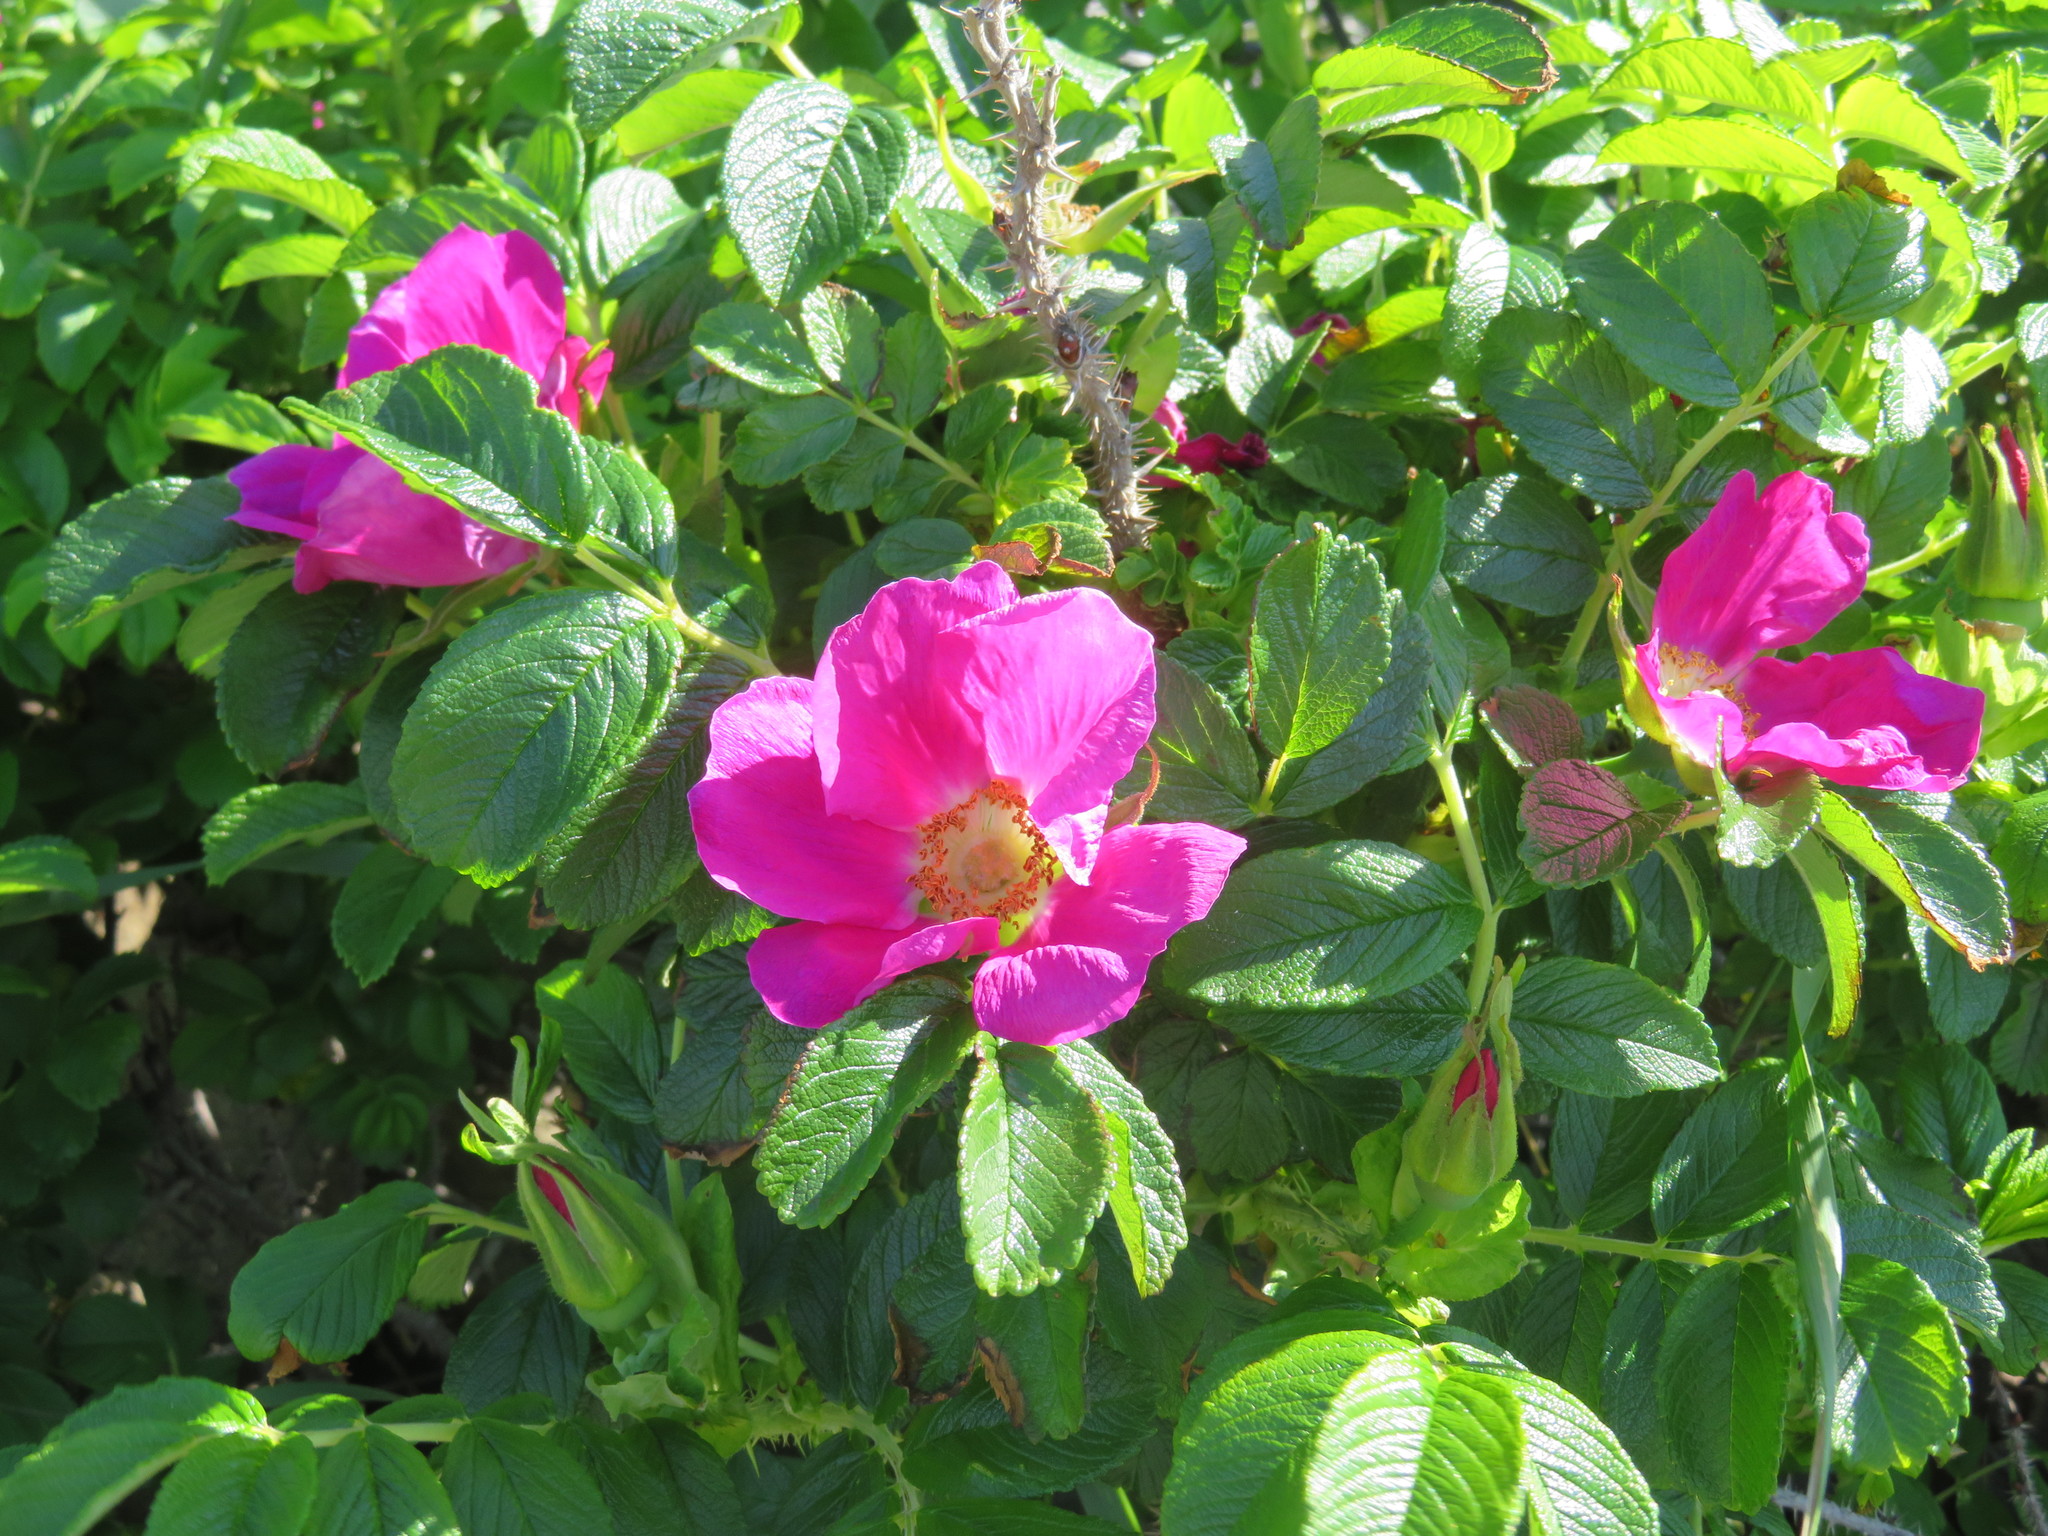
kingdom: Plantae
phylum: Tracheophyta
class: Magnoliopsida
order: Rosales
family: Rosaceae
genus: Rosa
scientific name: Rosa rugosa
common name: Japanese rose
